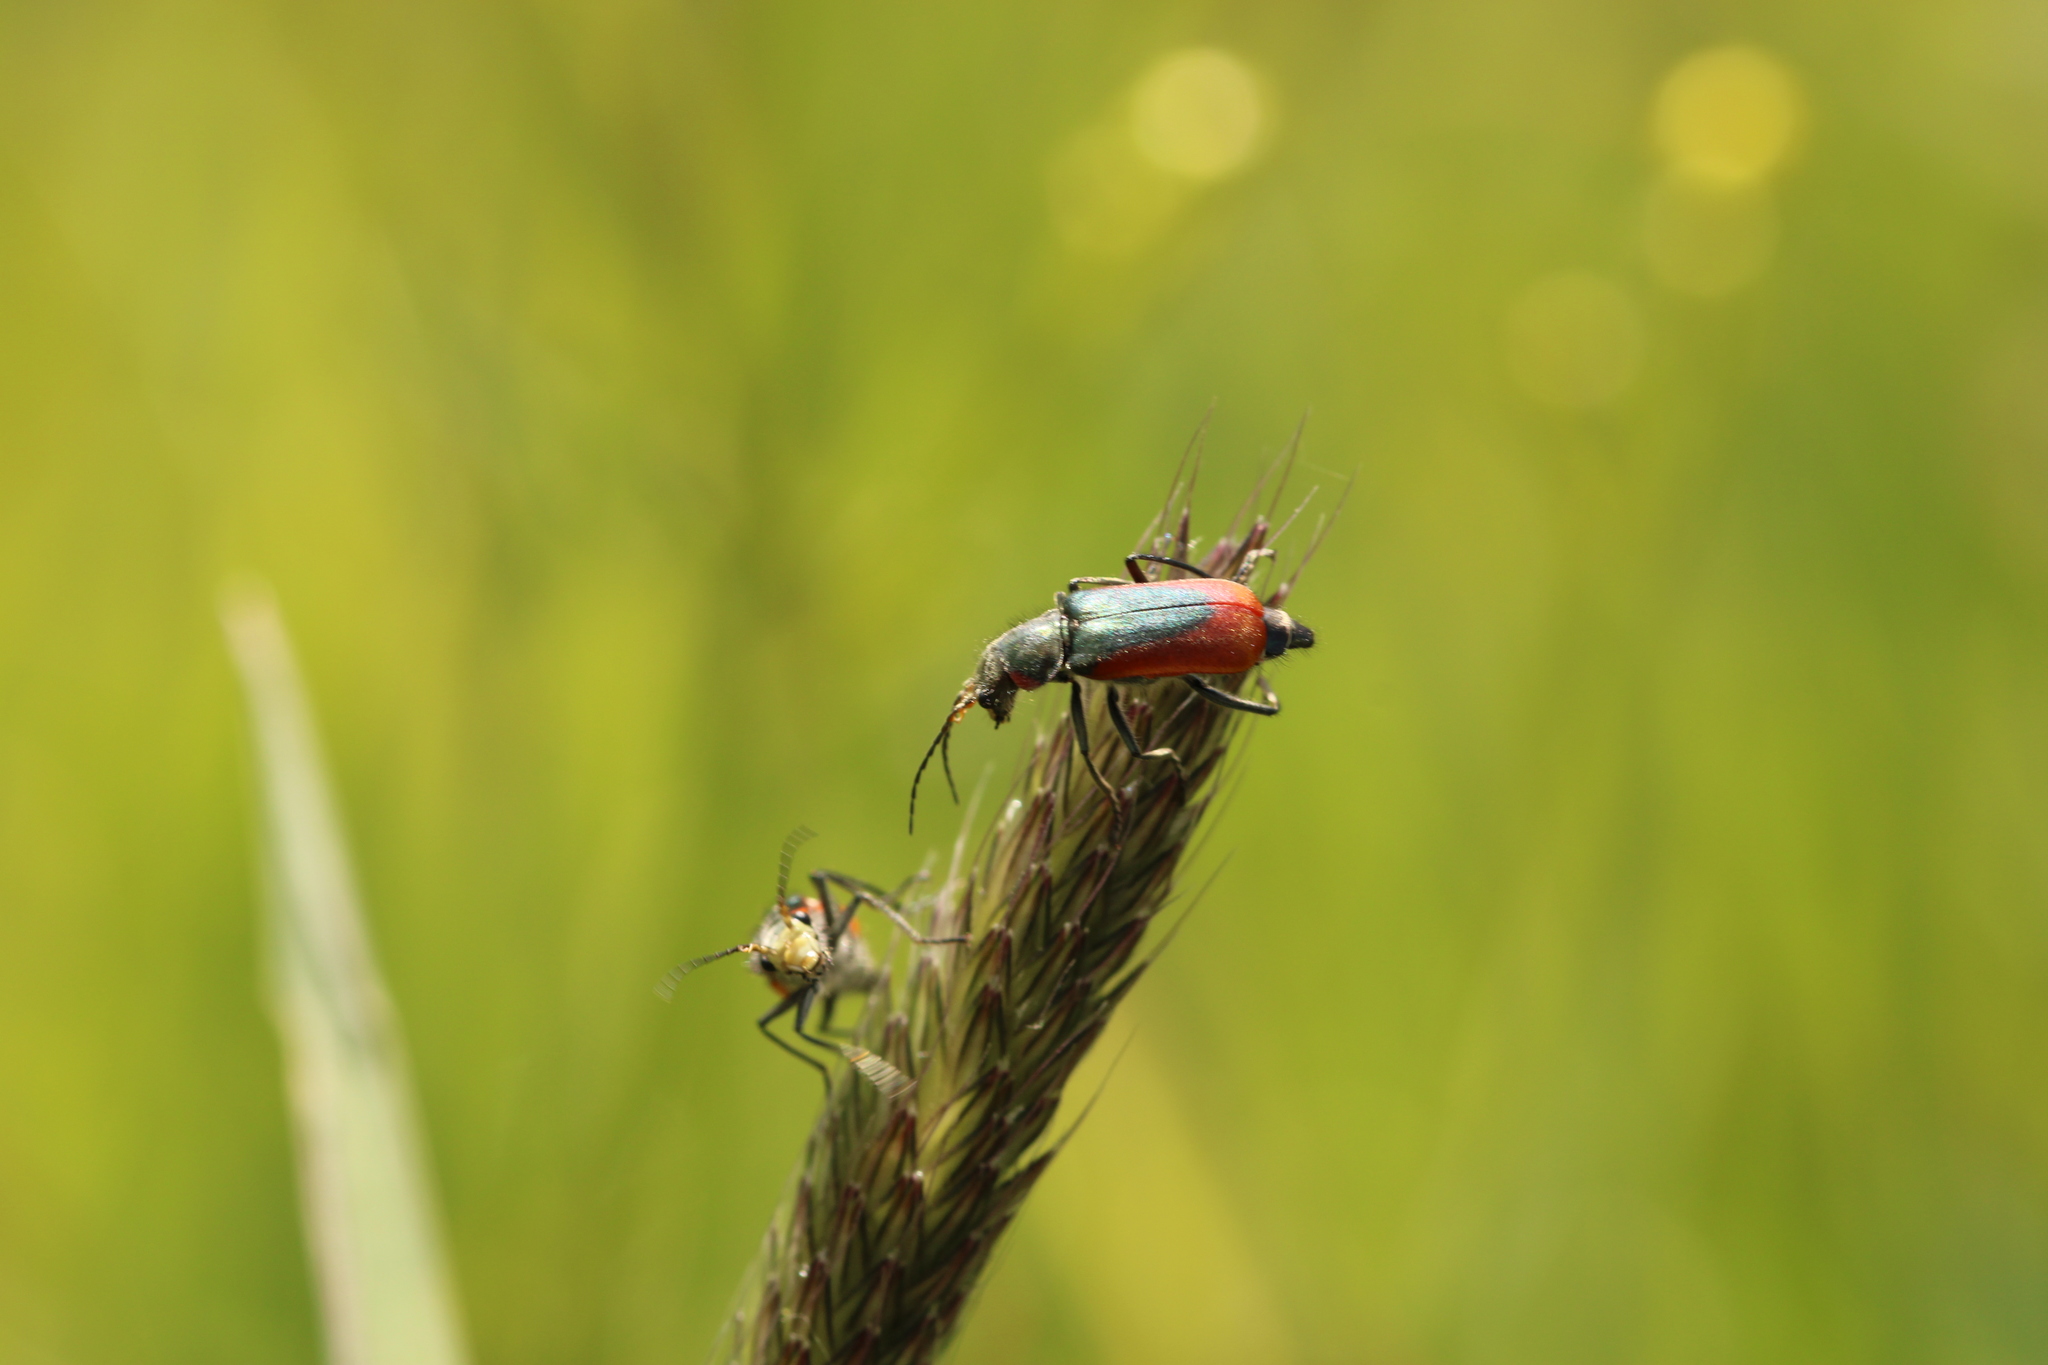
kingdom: Animalia
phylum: Arthropoda
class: Insecta
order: Coleoptera
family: Melyridae
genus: Malachius
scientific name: Malachius aeneus
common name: Scarlet malachite beetle
